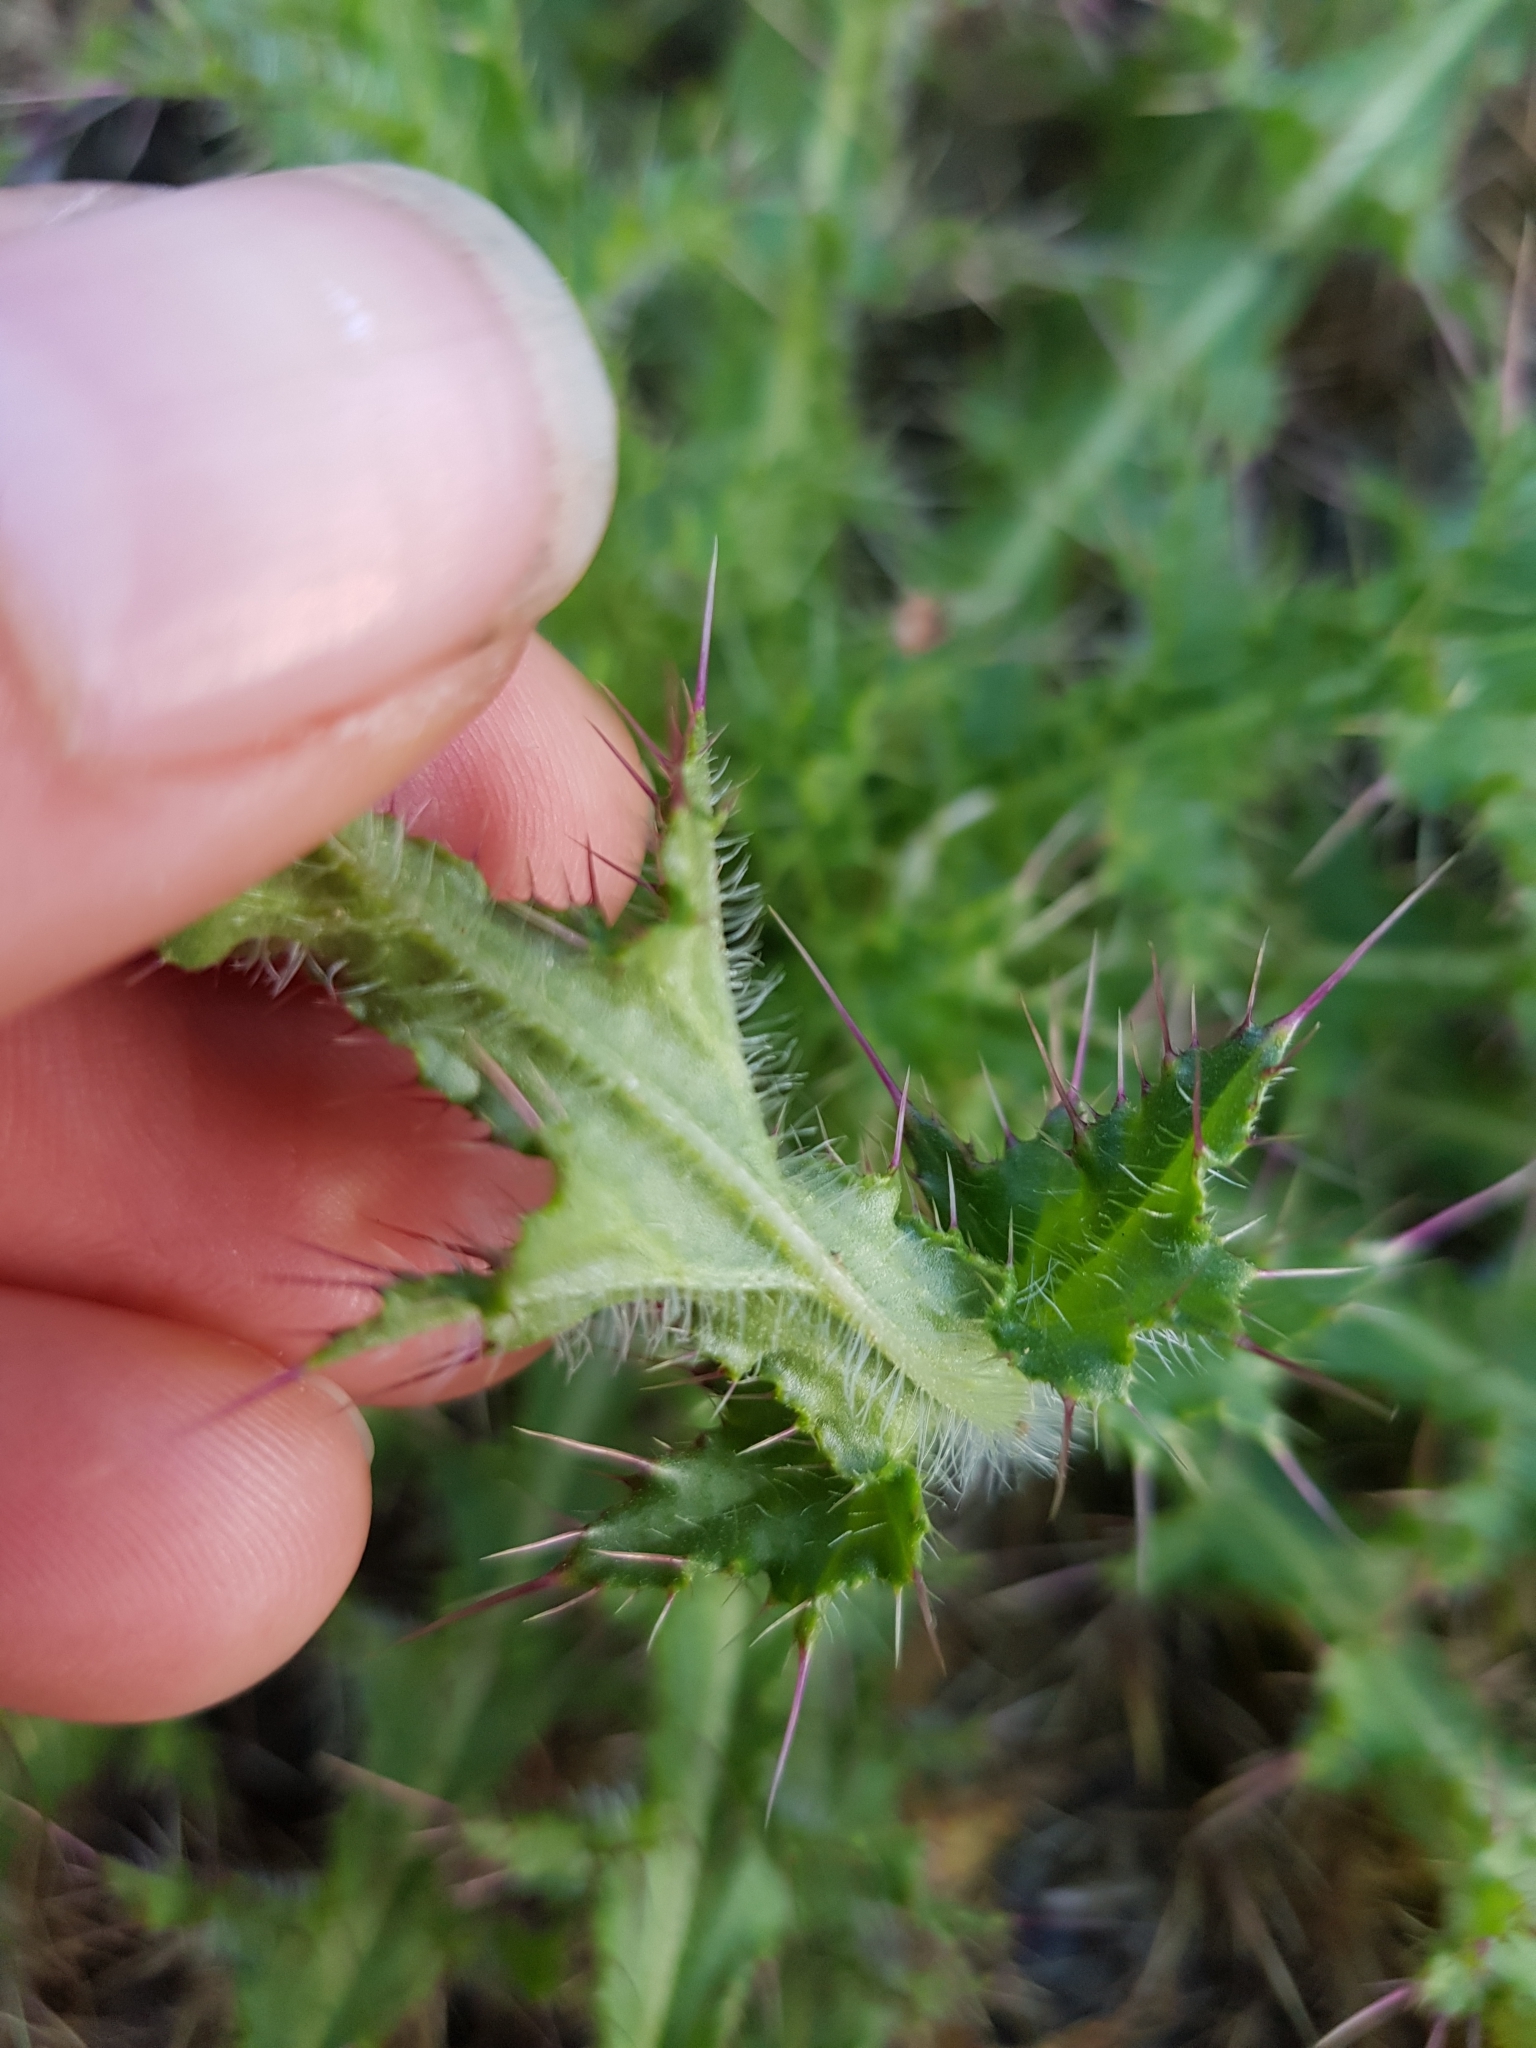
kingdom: Plantae
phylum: Tracheophyta
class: Magnoliopsida
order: Asterales
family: Asteraceae
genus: Cirsium
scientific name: Cirsium palustre
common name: Marsh thistle
